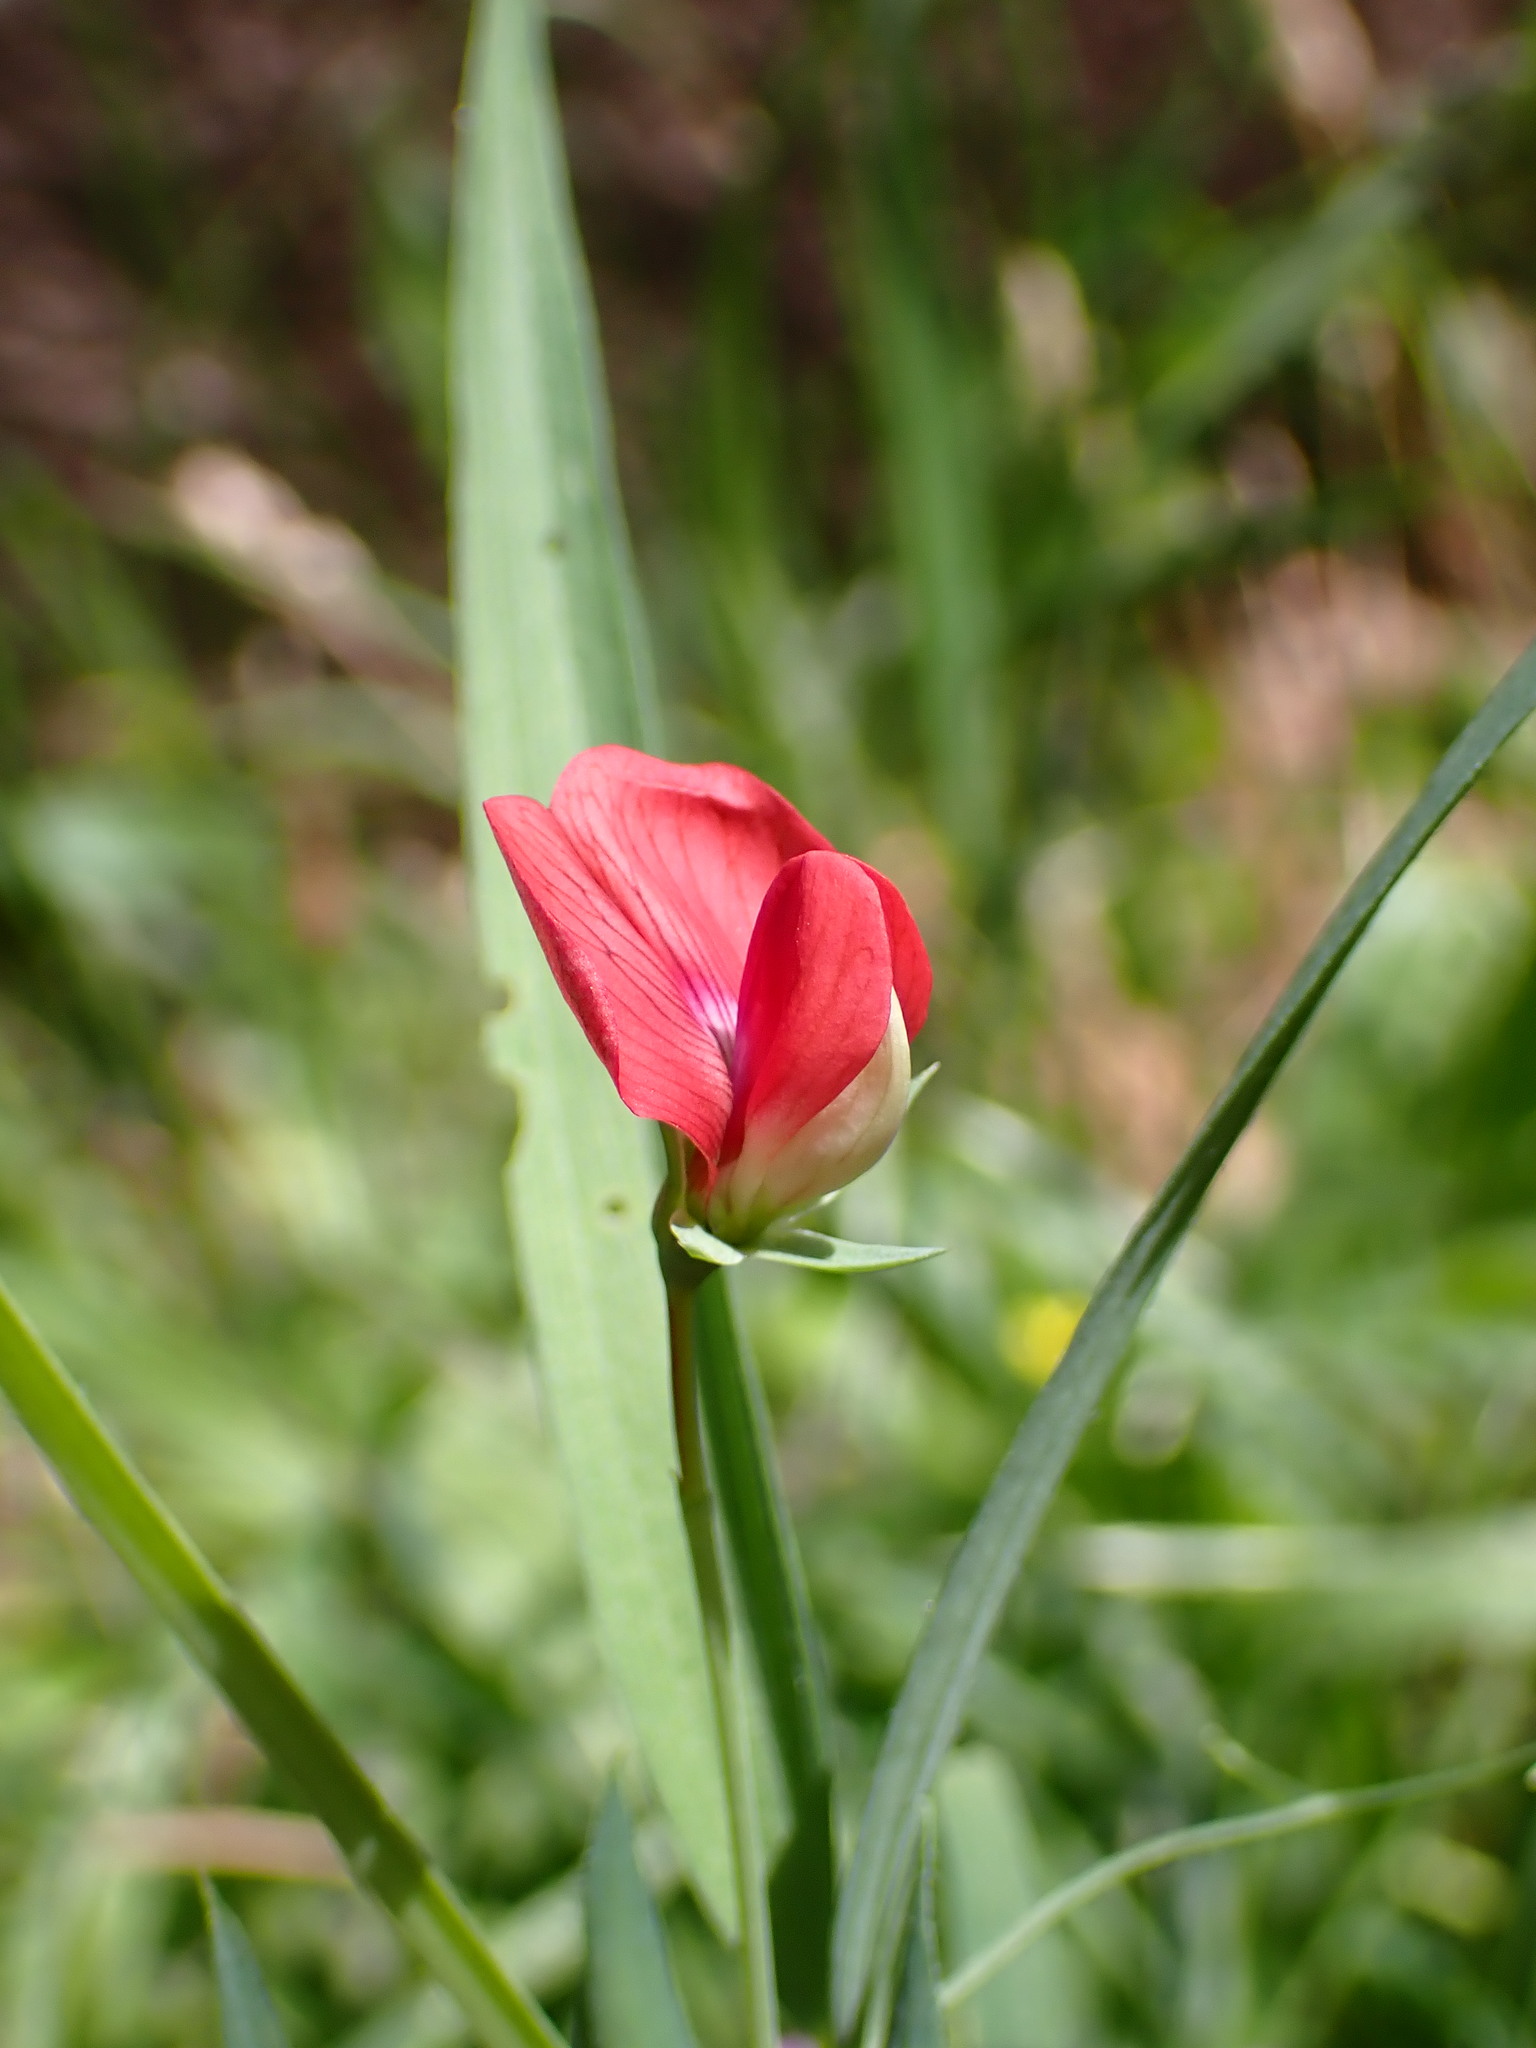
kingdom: Plantae
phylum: Tracheophyta
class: Magnoliopsida
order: Fabales
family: Fabaceae
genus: Lathyrus
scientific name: Lathyrus cicera
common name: Red vetchling
